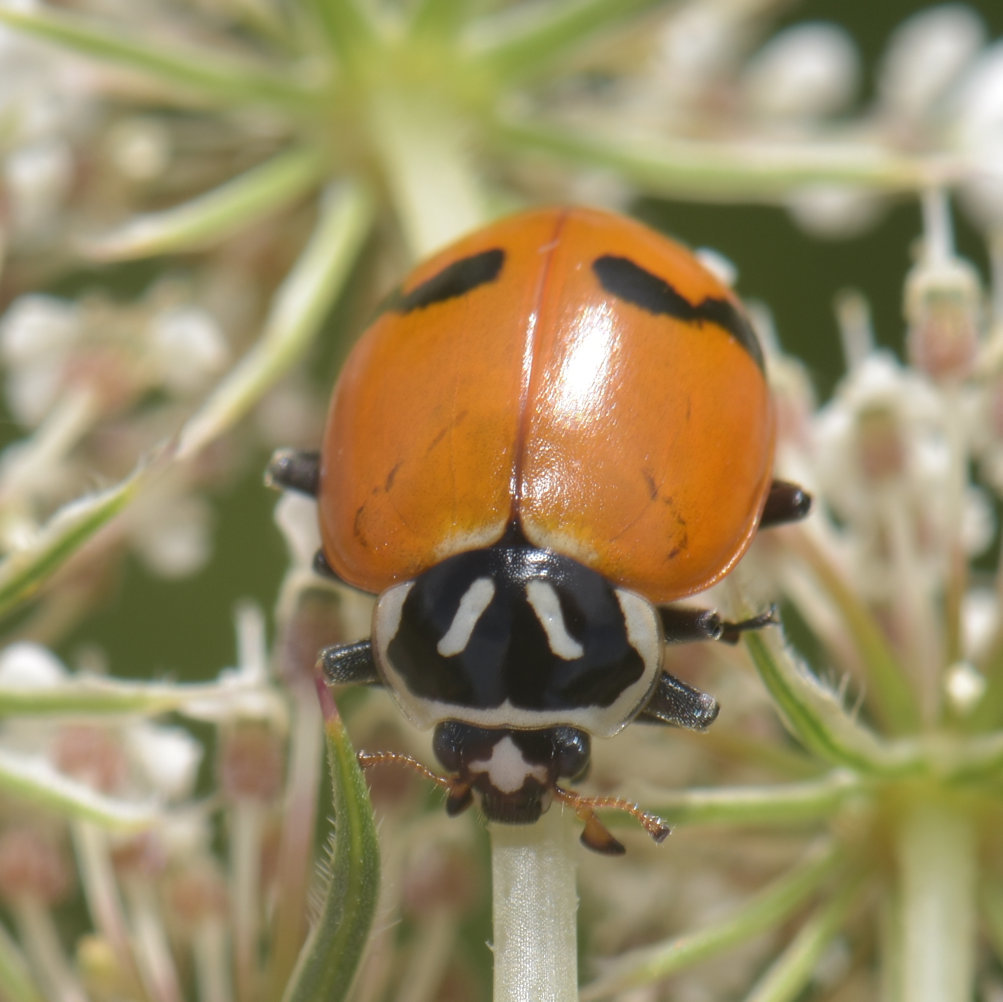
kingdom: Animalia
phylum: Arthropoda
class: Insecta
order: Coleoptera
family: Coccinellidae
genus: Hippodamia
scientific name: Hippodamia glacialis
